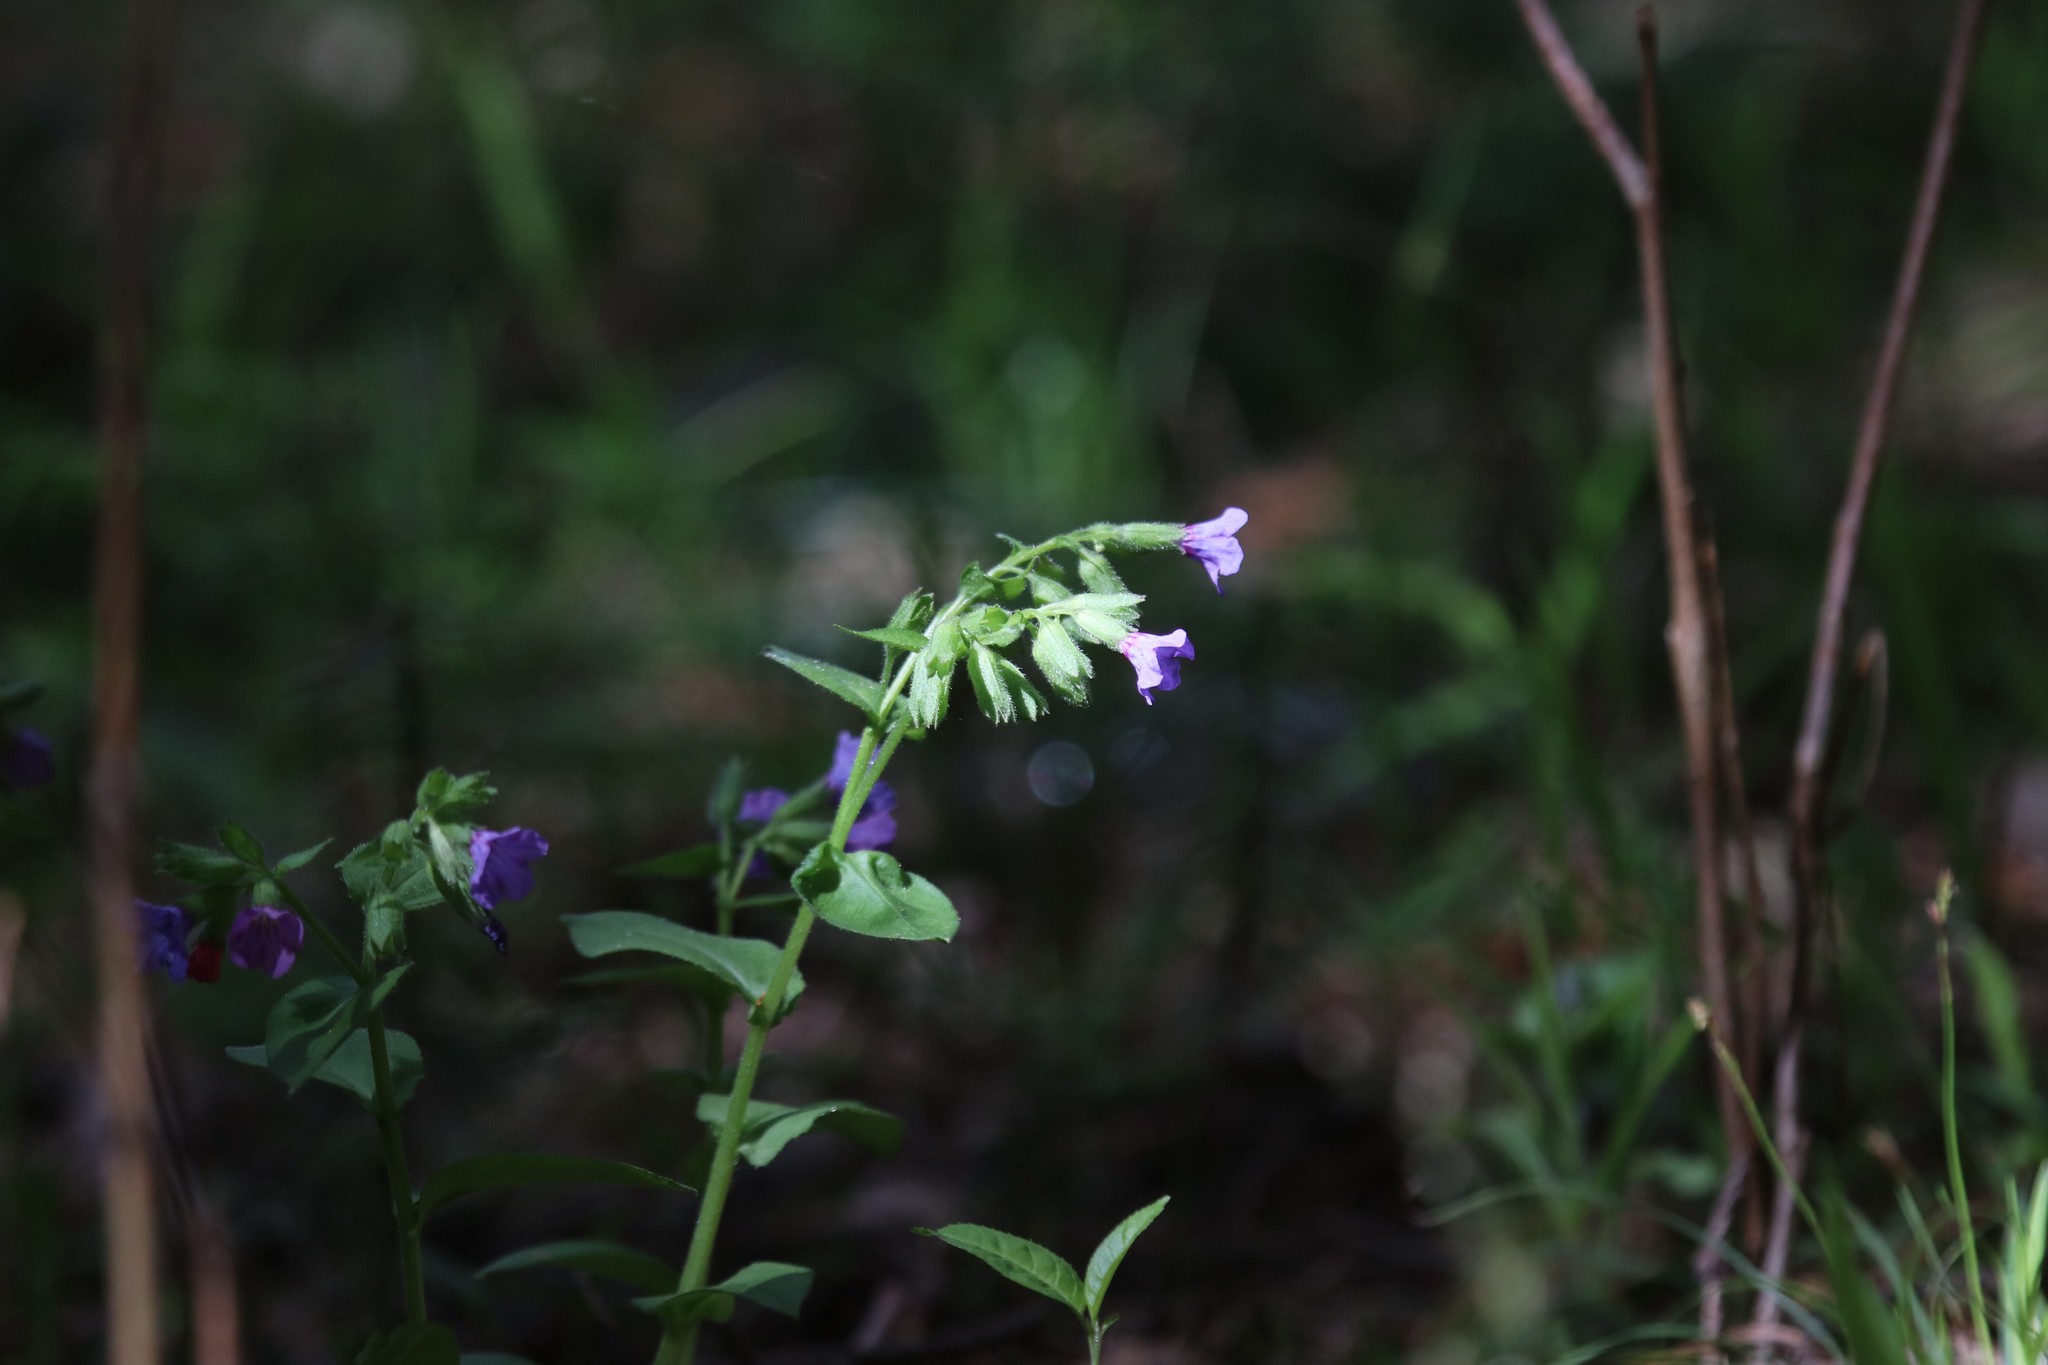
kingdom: Plantae
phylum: Tracheophyta
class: Magnoliopsida
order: Boraginales
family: Boraginaceae
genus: Pulmonaria
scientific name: Pulmonaria obscura
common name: Suffolk lungwort
